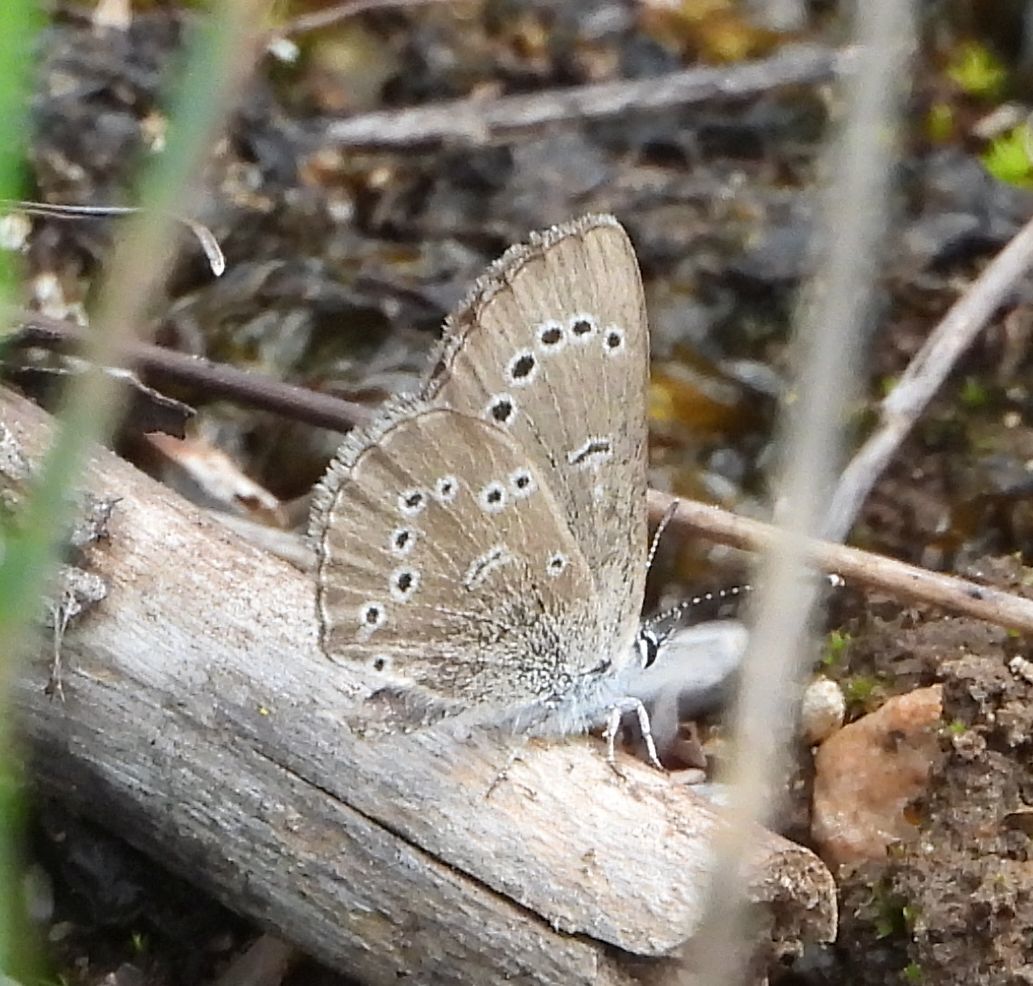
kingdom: Animalia
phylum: Arthropoda
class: Insecta
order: Lepidoptera
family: Lycaenidae
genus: Glaucopsyche
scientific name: Glaucopsyche lygdamus
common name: Silvery blue
